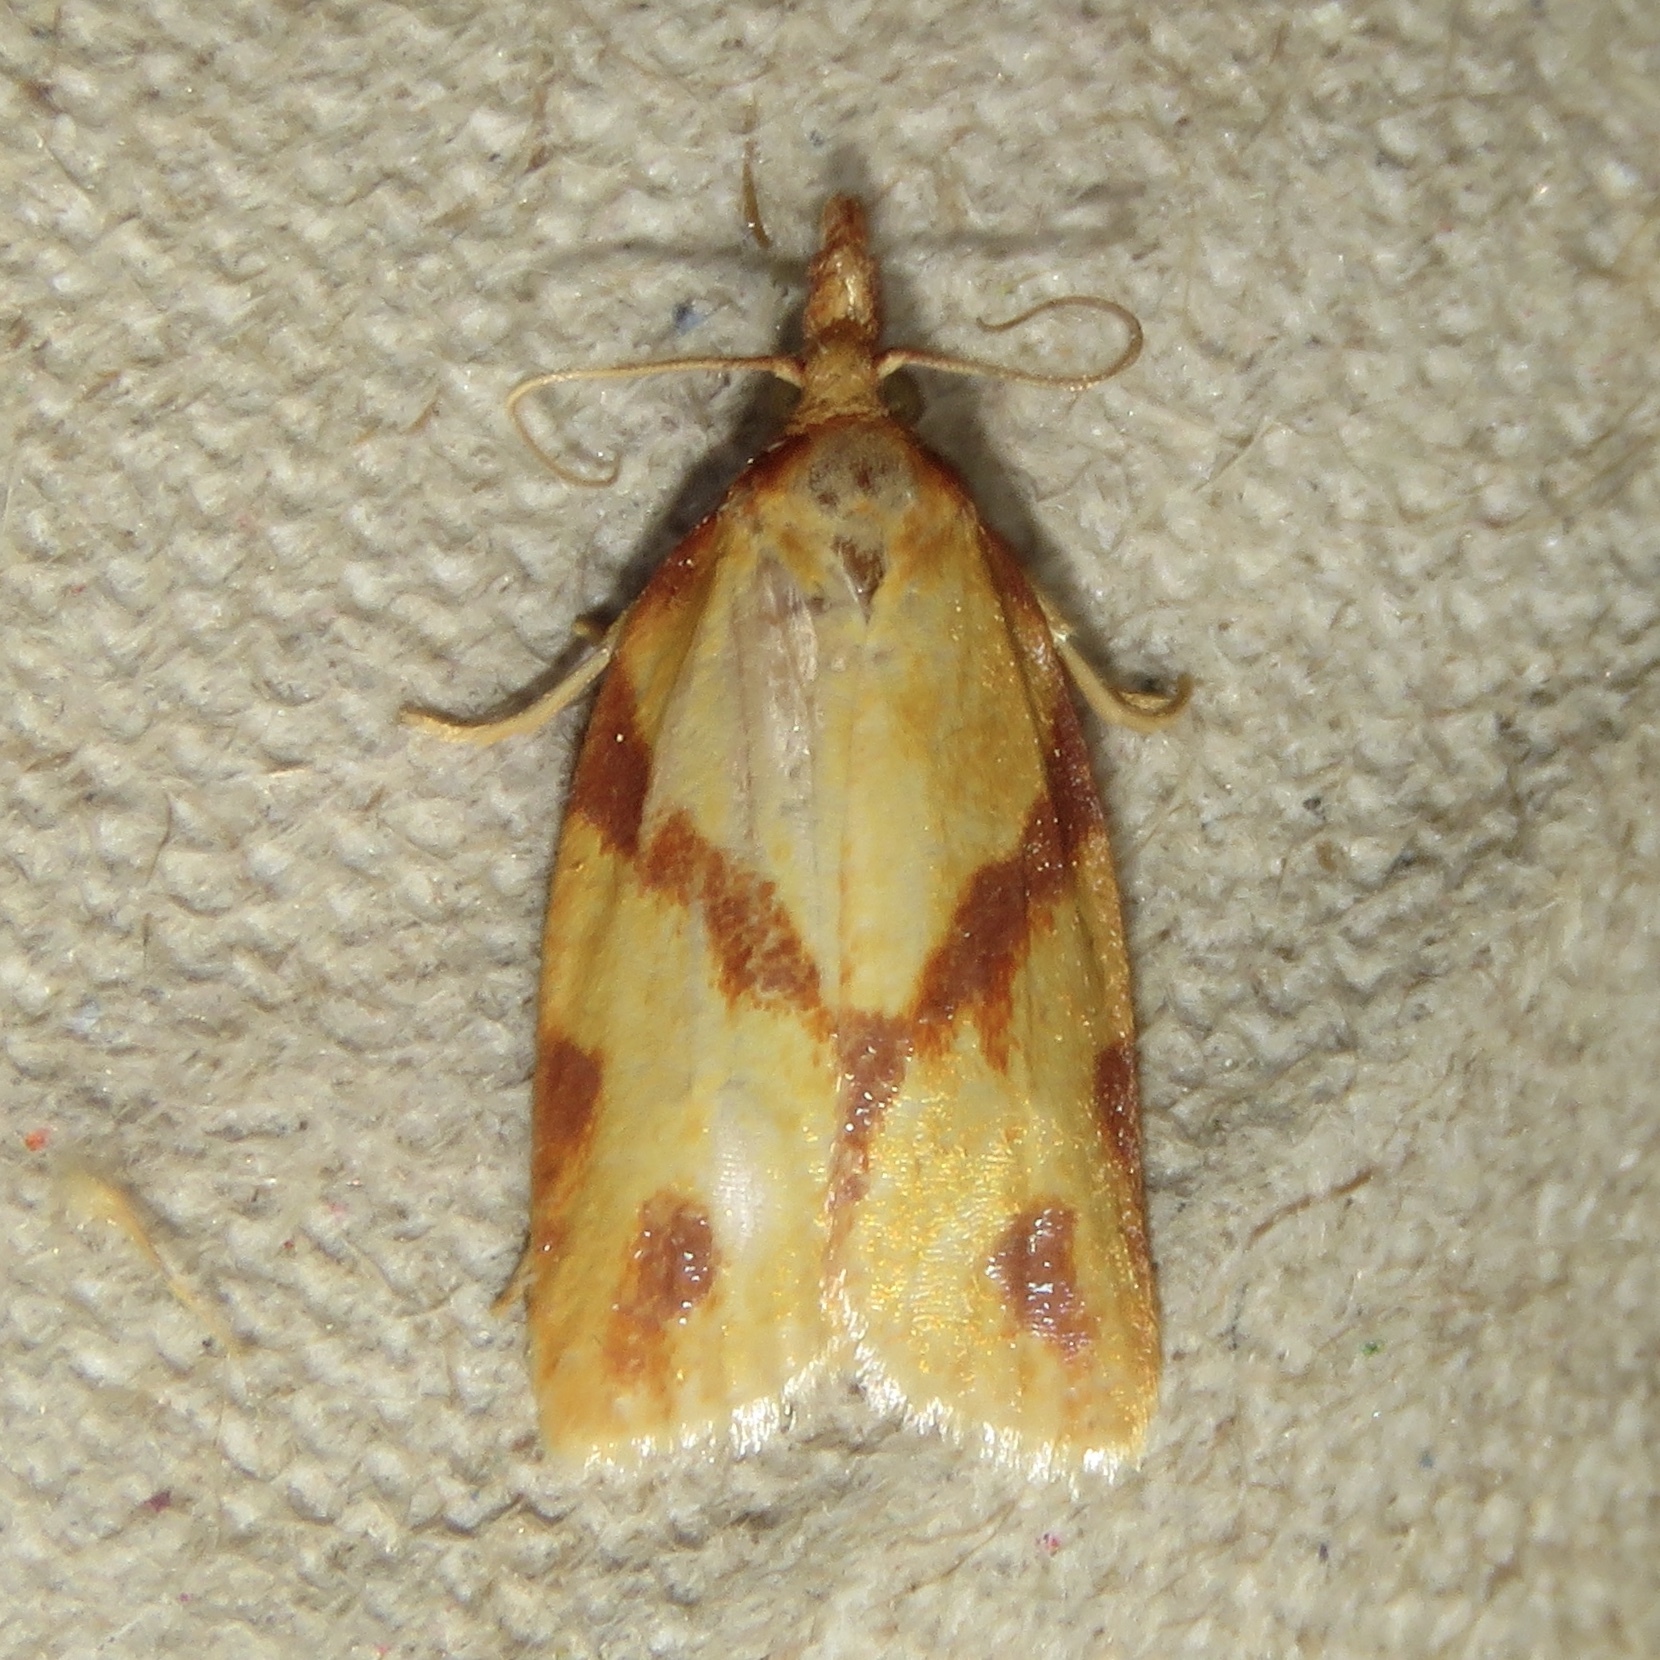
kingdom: Animalia
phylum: Arthropoda
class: Insecta
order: Lepidoptera
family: Tortricidae
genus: Sparganothis
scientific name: Sparganothis unifasciana
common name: One-lined sparganothis moth
